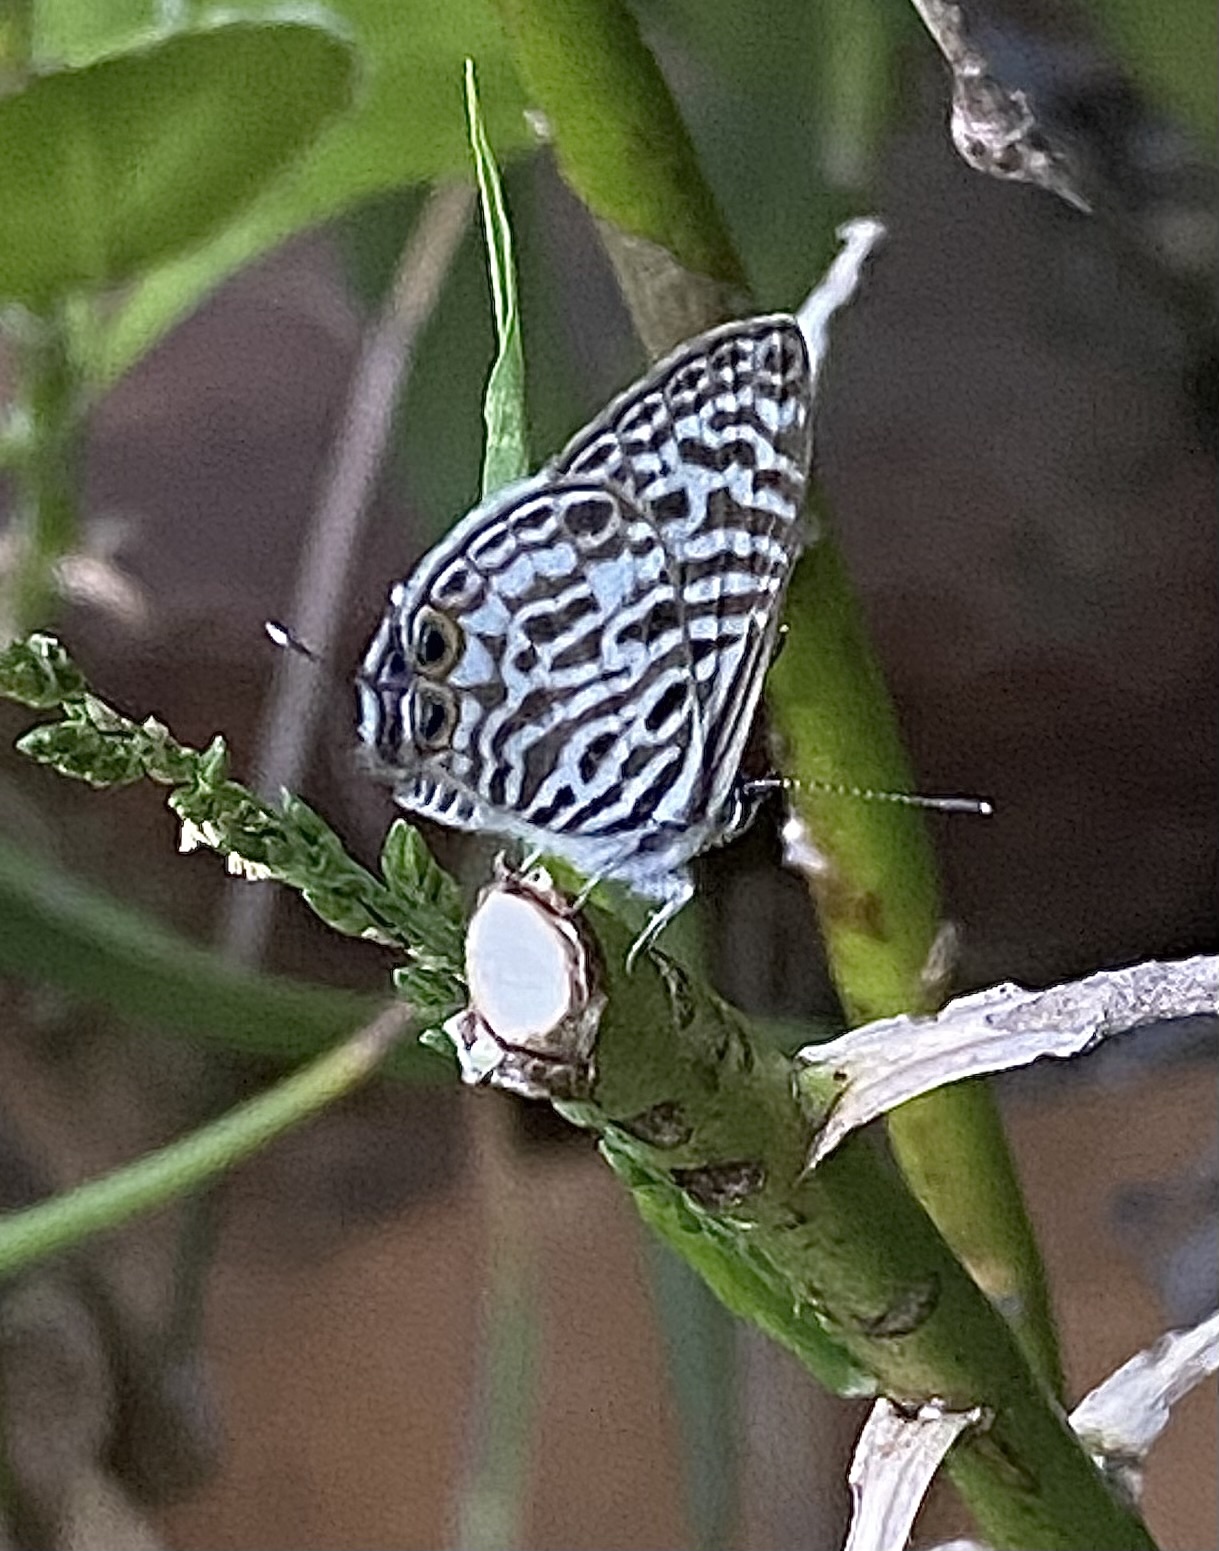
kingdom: Animalia
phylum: Arthropoda
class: Insecta
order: Lepidoptera
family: Lycaenidae
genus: Leptotes
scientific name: Leptotes
